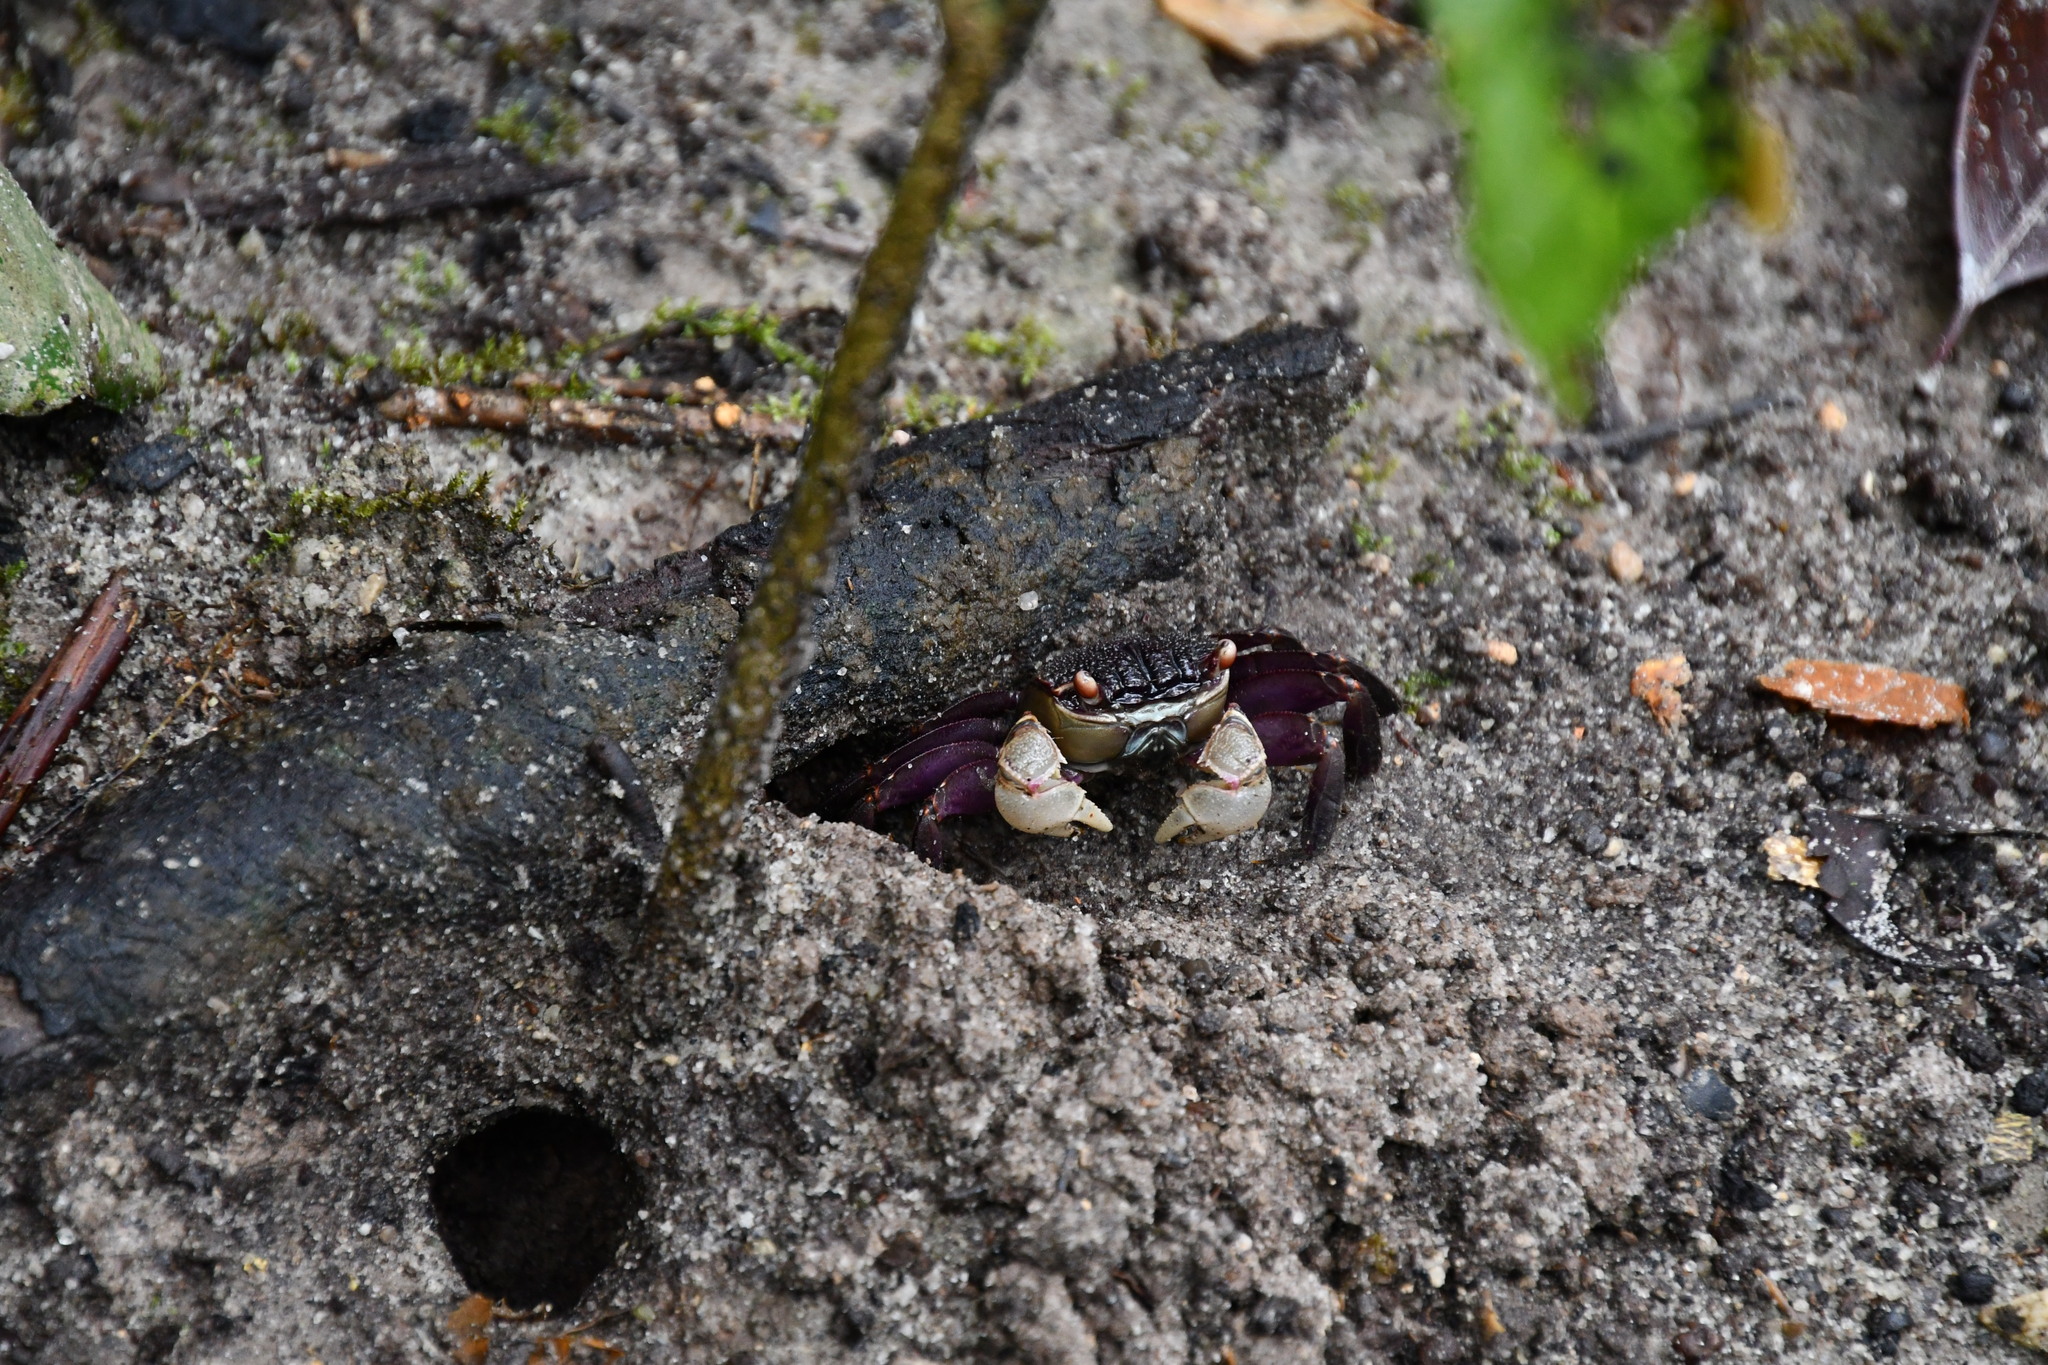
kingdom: Animalia
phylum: Arthropoda
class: Malacostraca
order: Decapoda
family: Sesarmidae
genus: Tiomanium
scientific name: Tiomanium indicum
